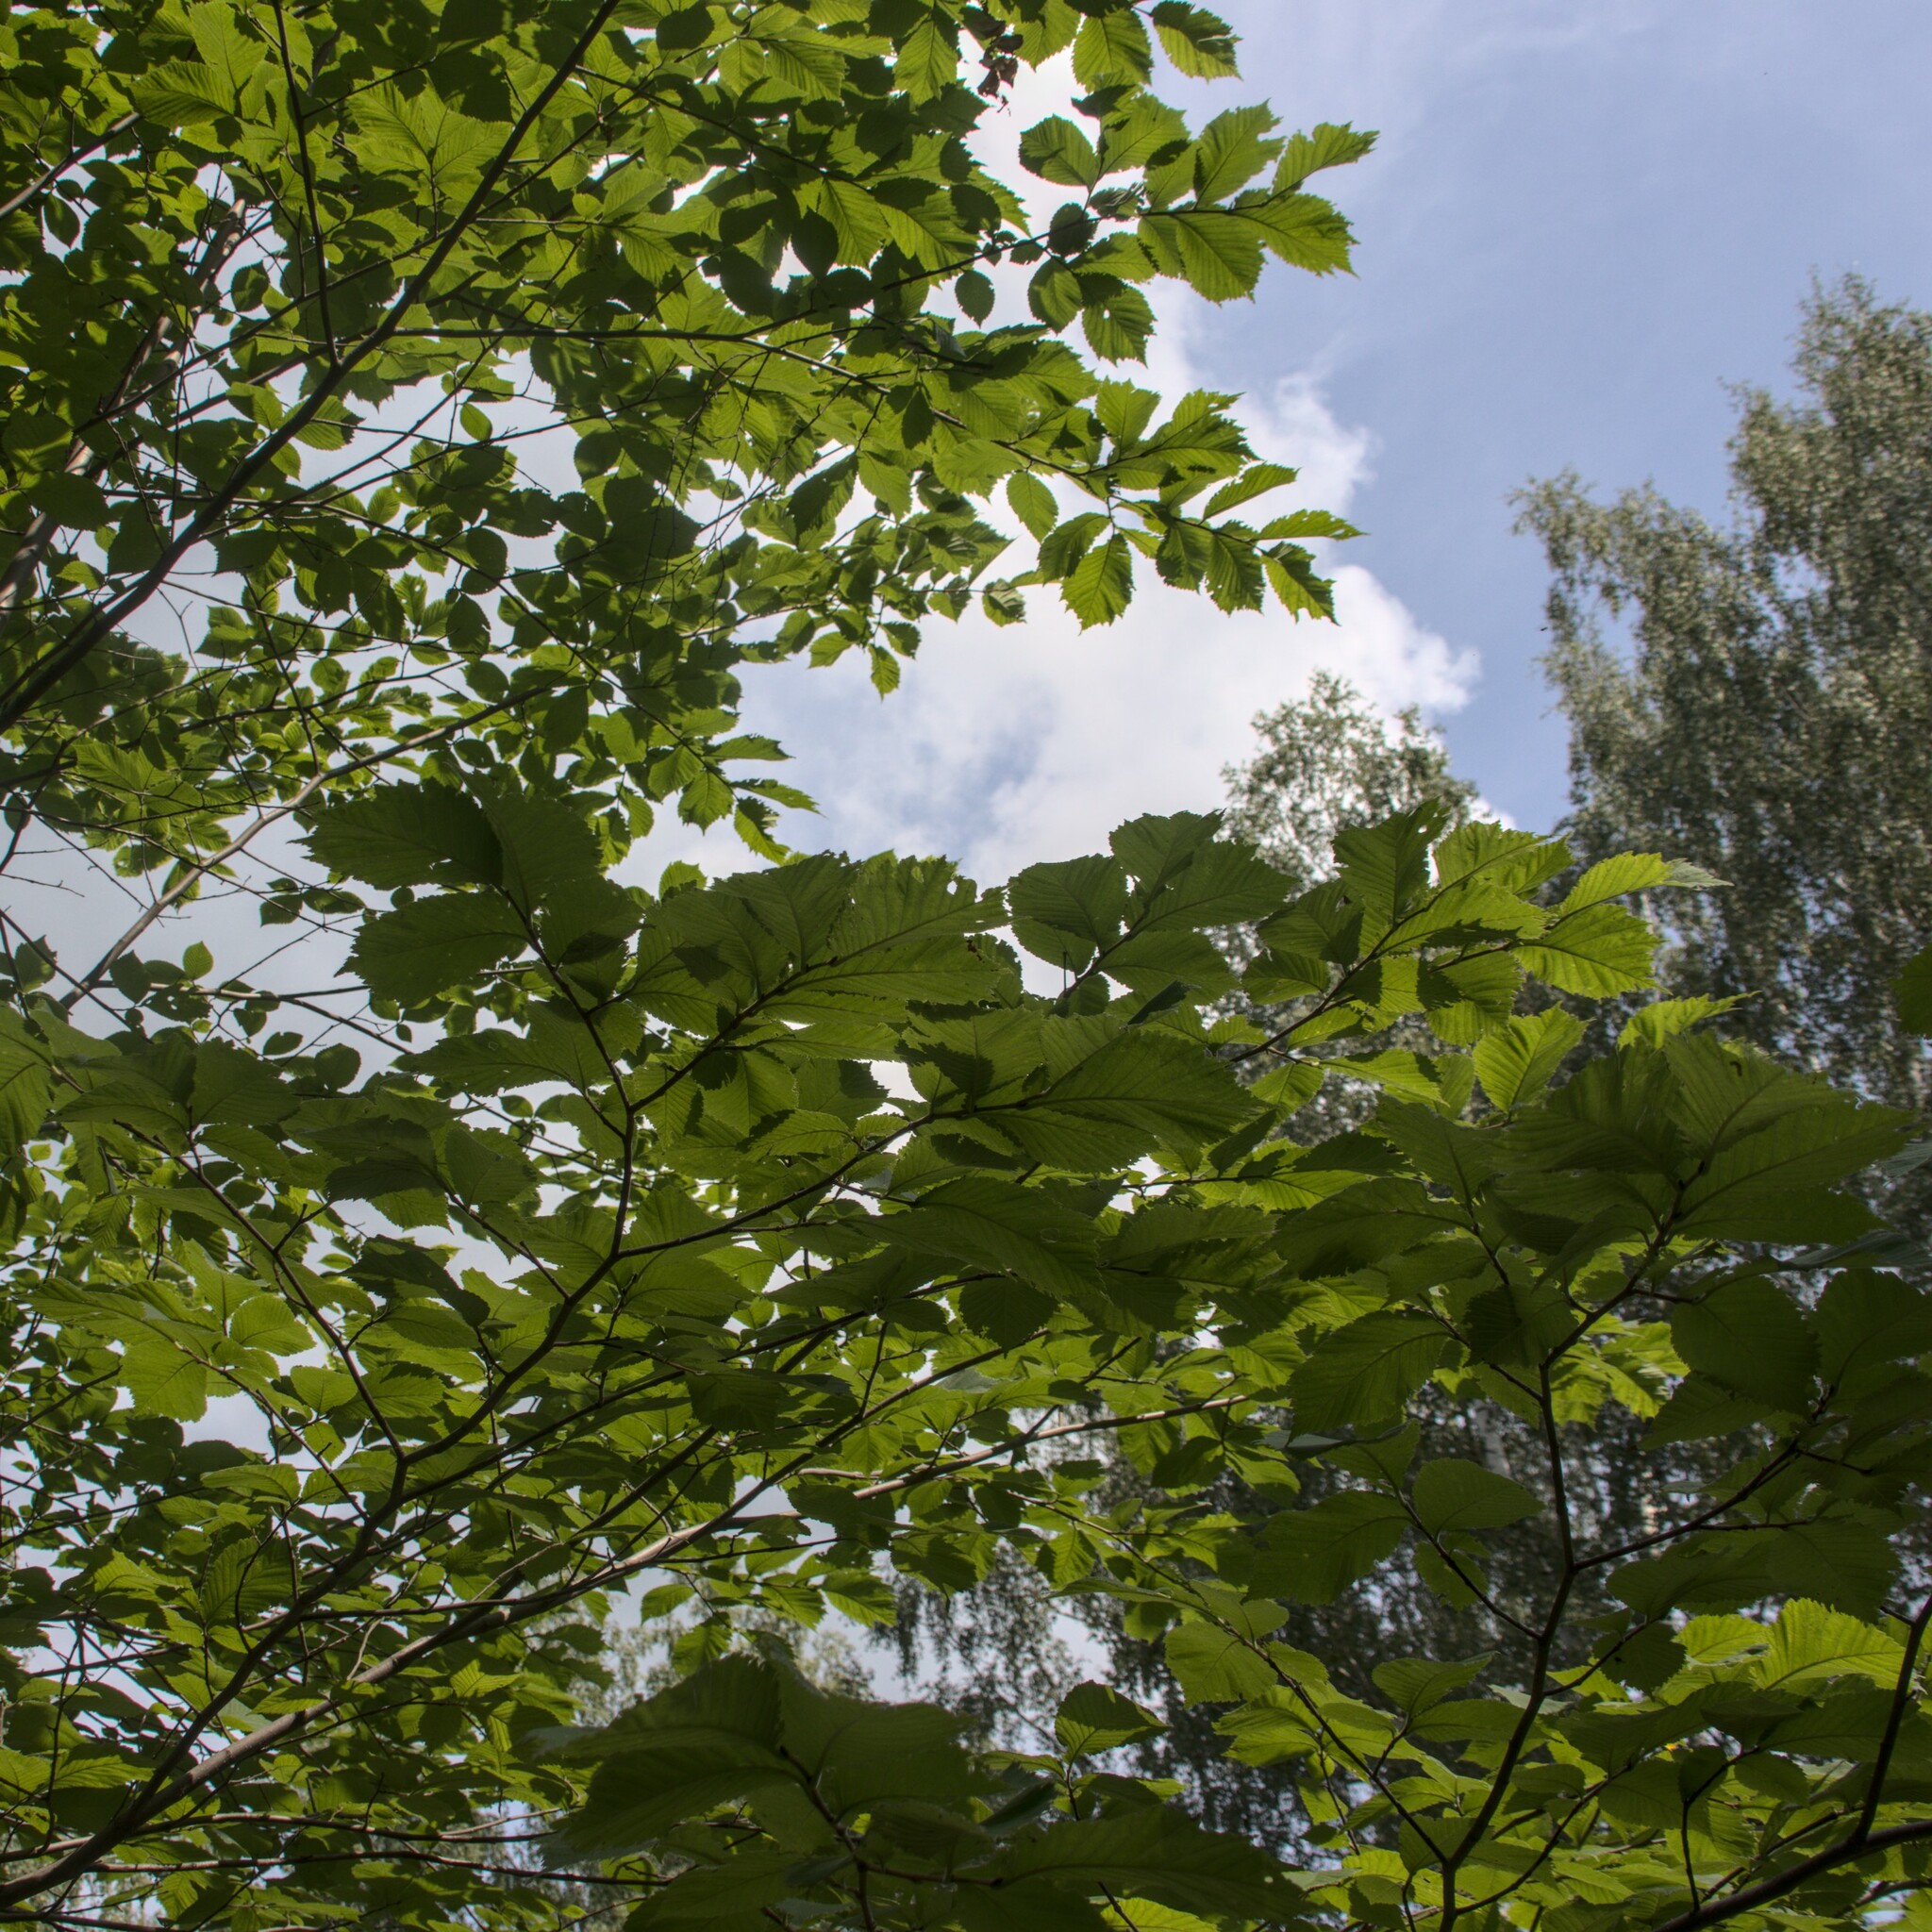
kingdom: Plantae
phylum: Tracheophyta
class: Magnoliopsida
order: Rosales
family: Ulmaceae
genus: Ulmus
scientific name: Ulmus glabra
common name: Wych elm
